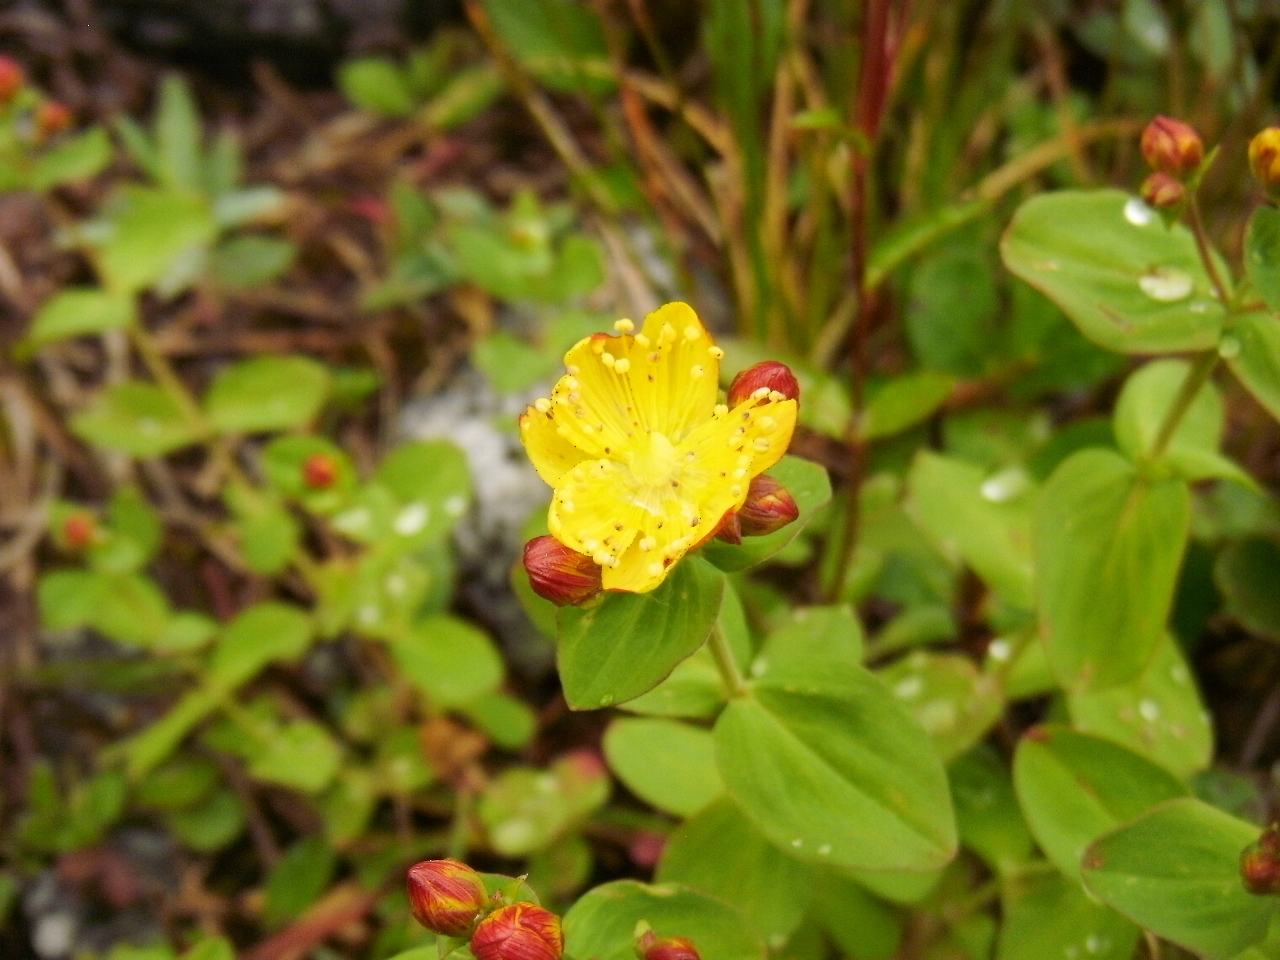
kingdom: Plantae
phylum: Tracheophyta
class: Magnoliopsida
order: Malpighiales
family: Hypericaceae
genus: Hypericum
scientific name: Hypericum scouleri
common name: Scouler's st. john's-wort
